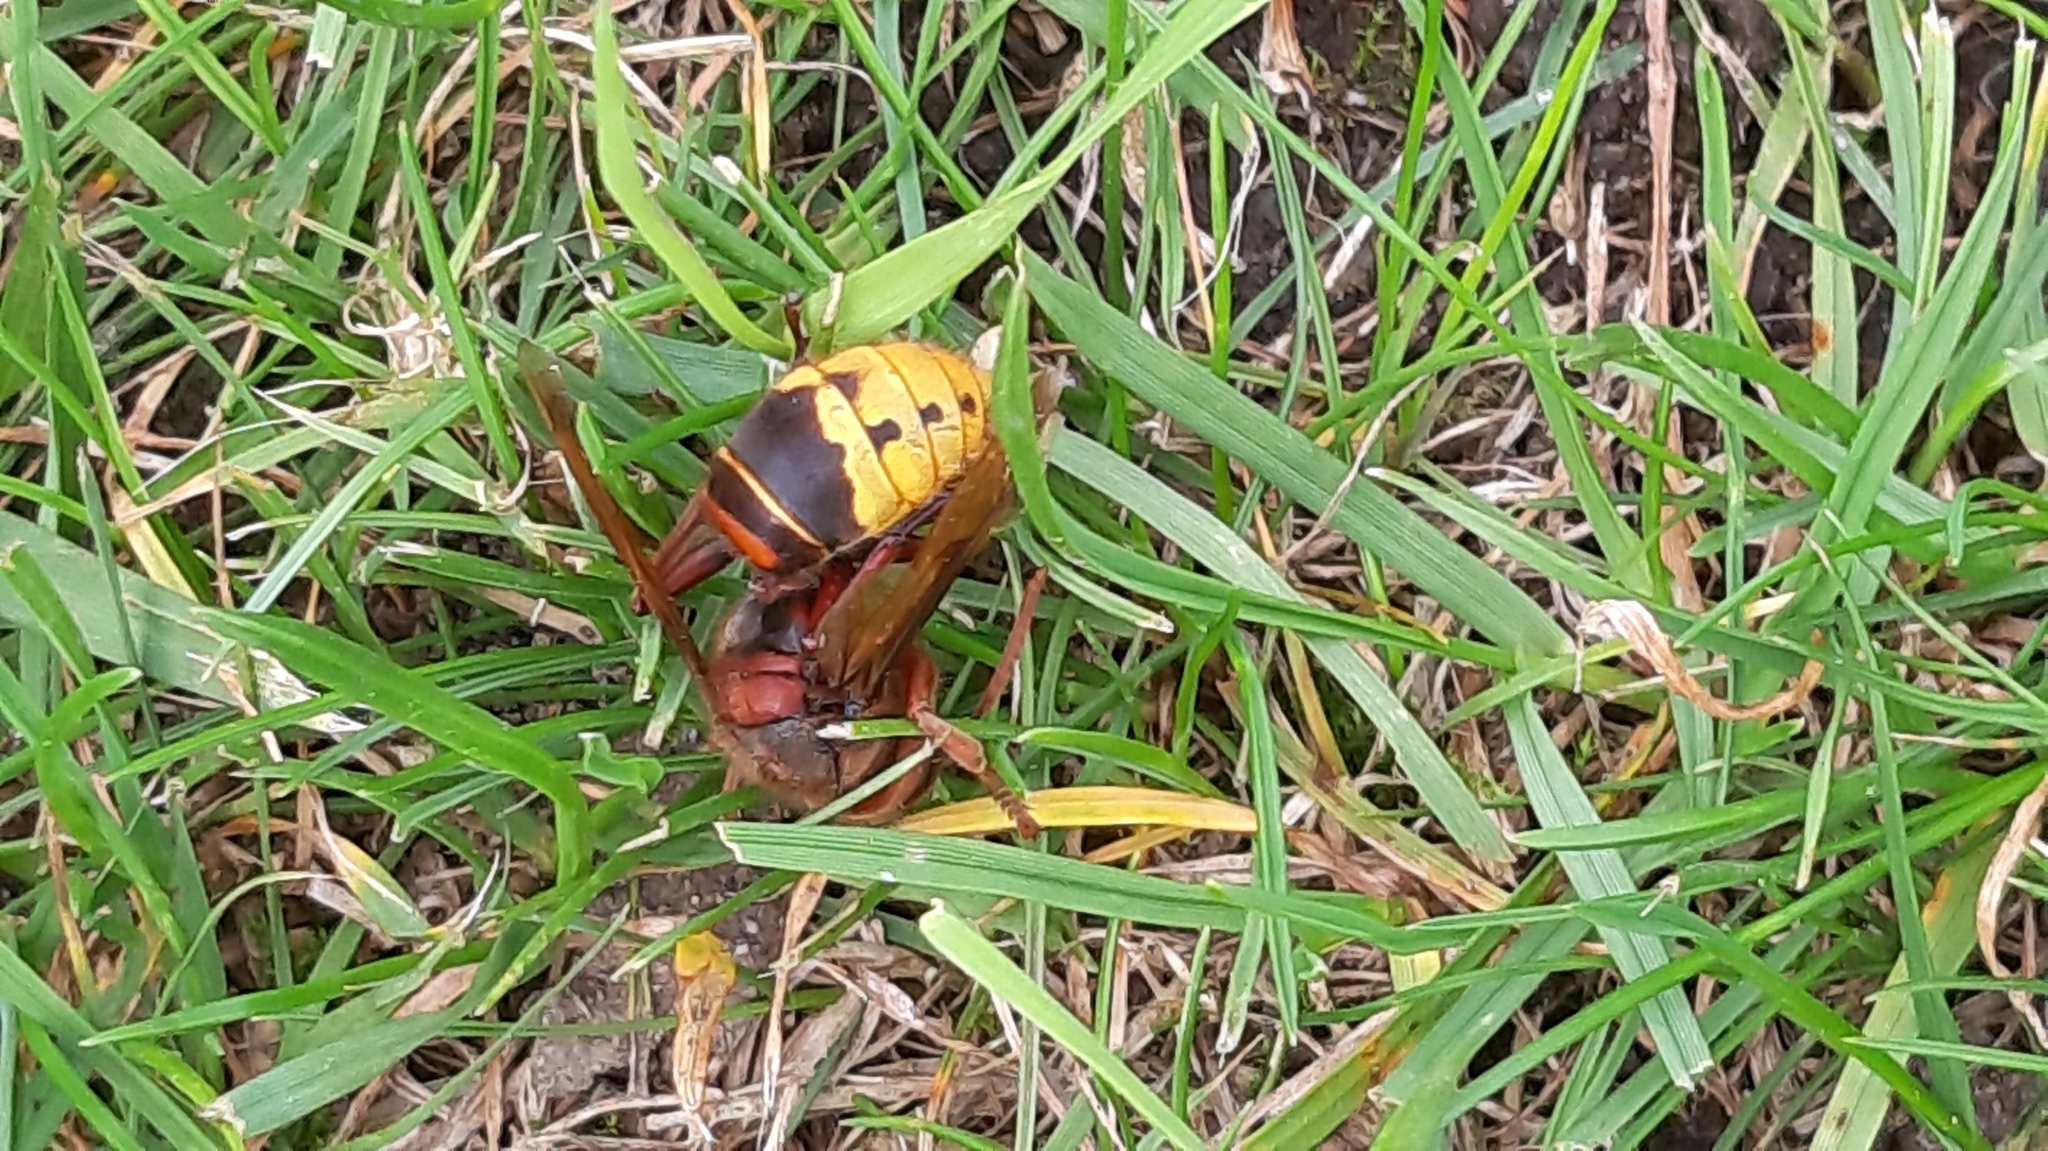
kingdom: Animalia
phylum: Arthropoda
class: Insecta
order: Hymenoptera
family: Vespidae
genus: Vespa
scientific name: Vespa crabro
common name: Hornet
